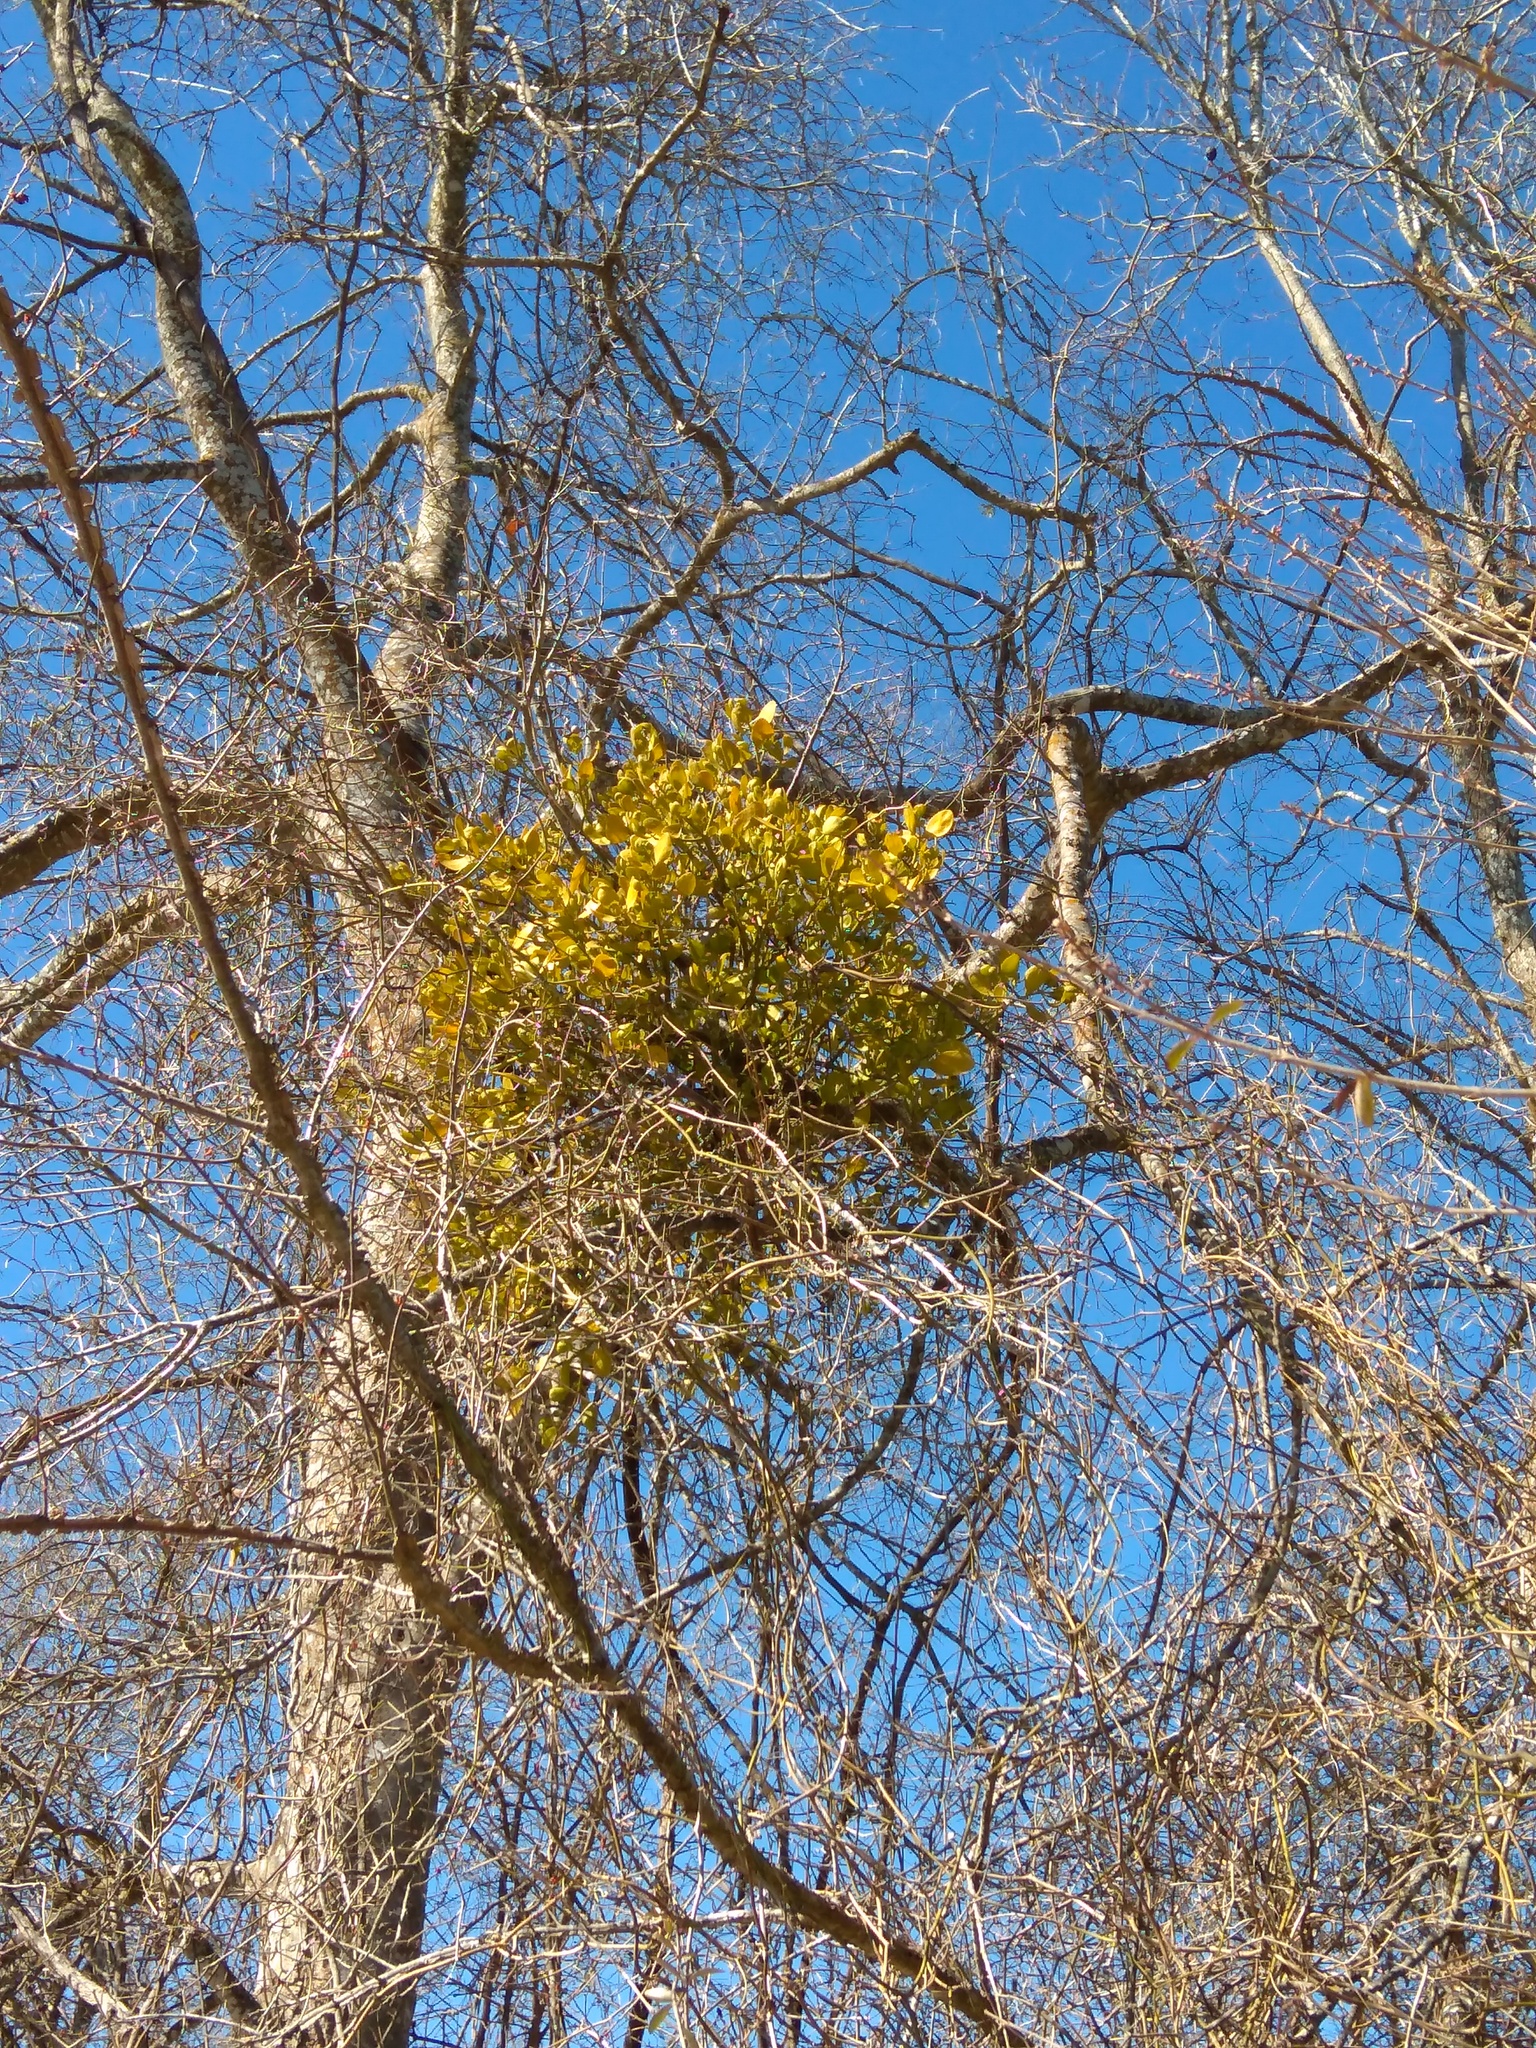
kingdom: Plantae
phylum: Tracheophyta
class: Magnoliopsida
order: Santalales
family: Viscaceae
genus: Phoradendron
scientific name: Phoradendron leucarpum
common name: Pacific mistletoe
